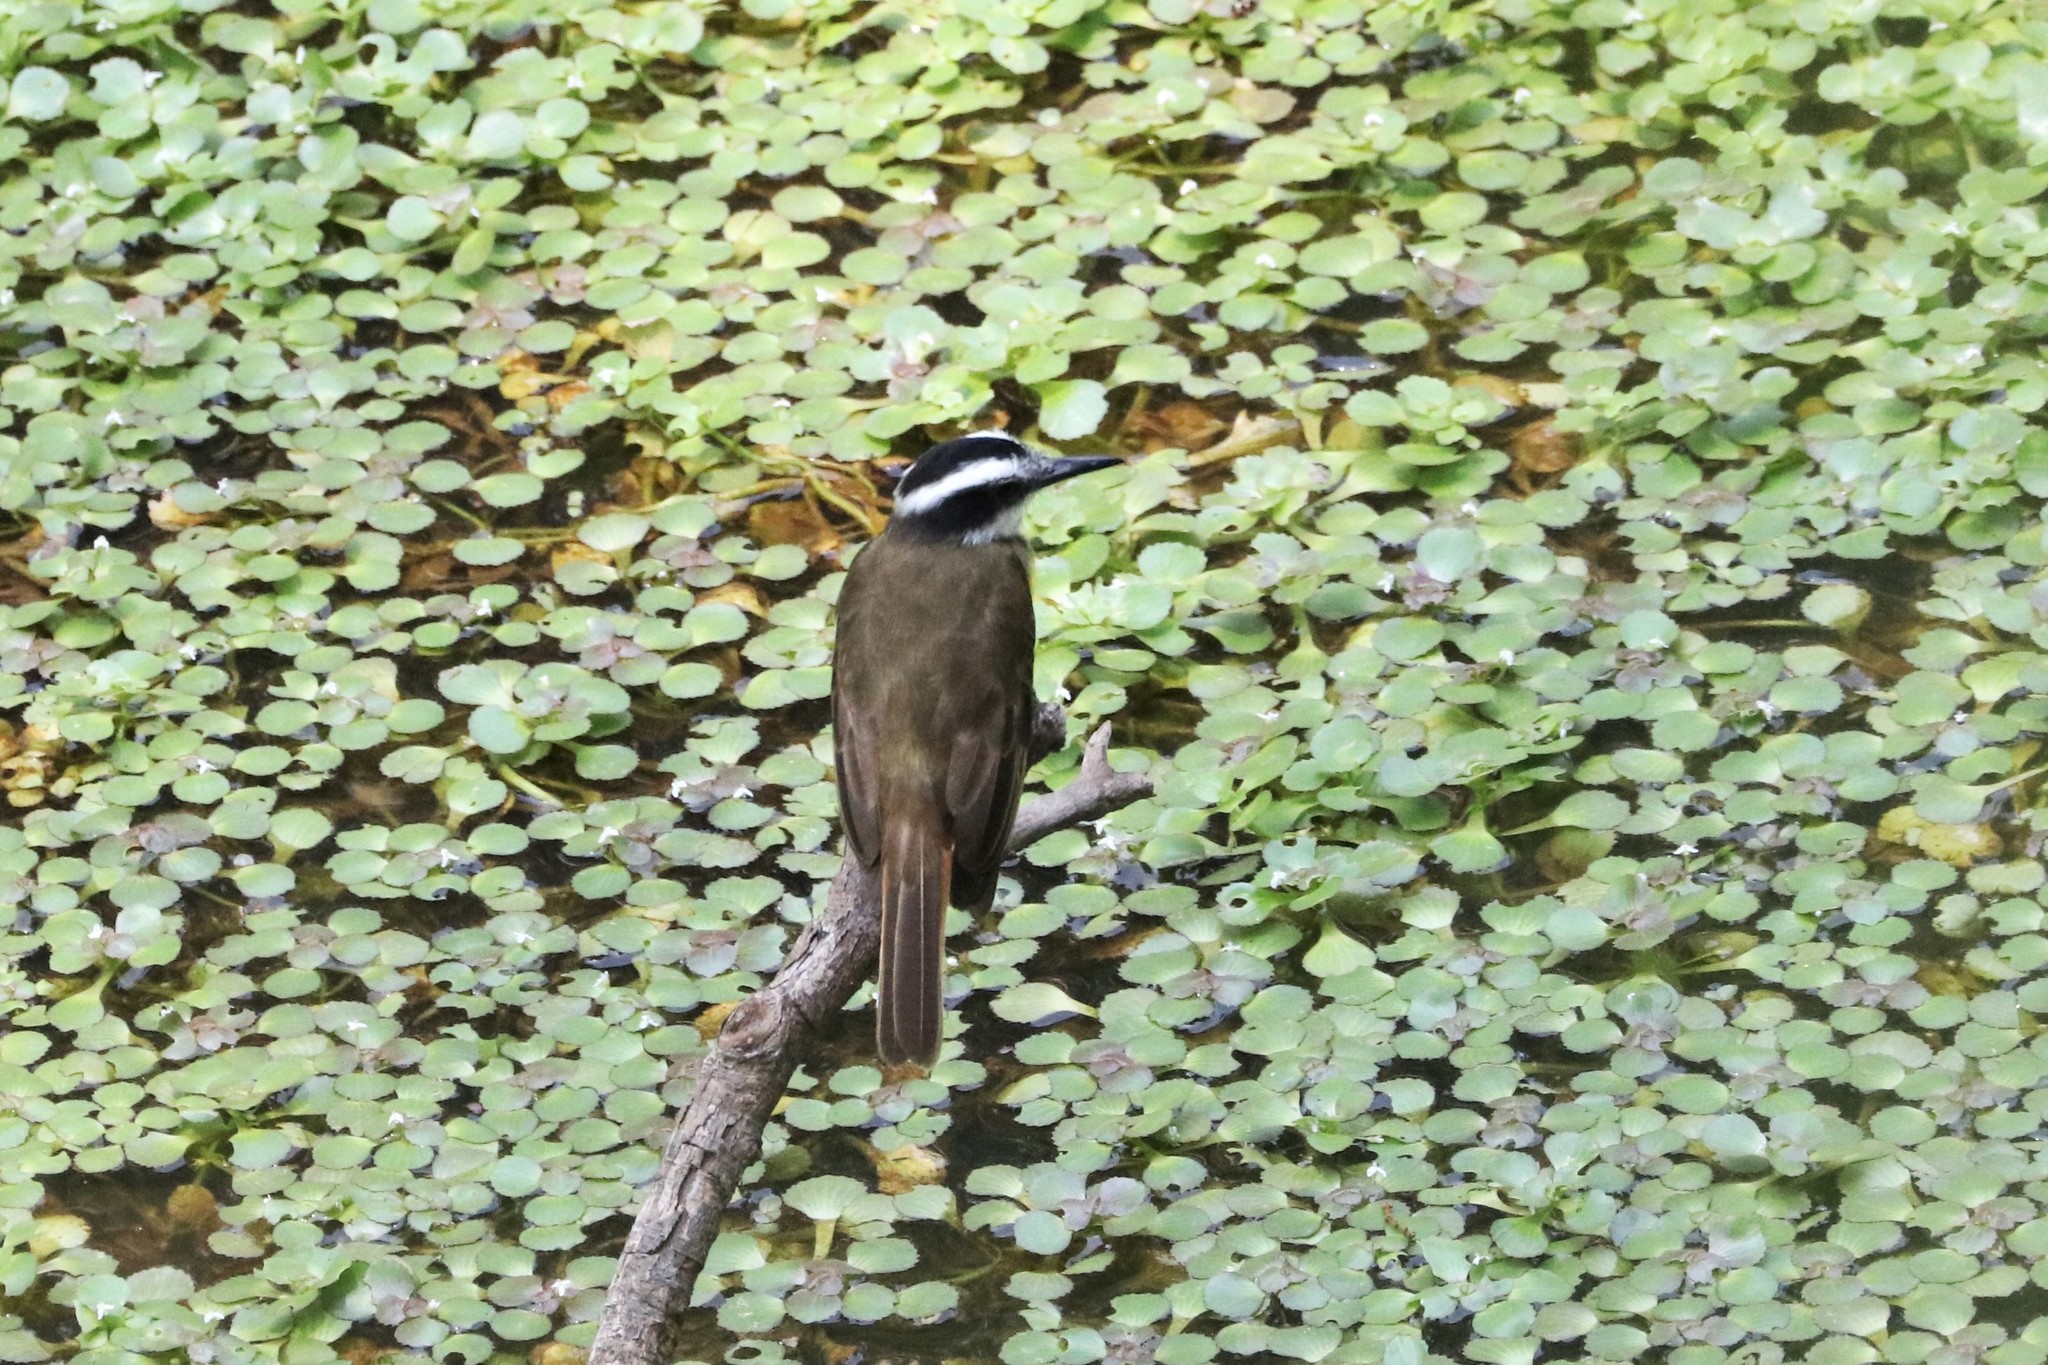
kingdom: Animalia
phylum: Chordata
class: Aves
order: Passeriformes
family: Tyrannidae
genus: Pitangus
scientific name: Pitangus lictor
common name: Lesser kiskadee
